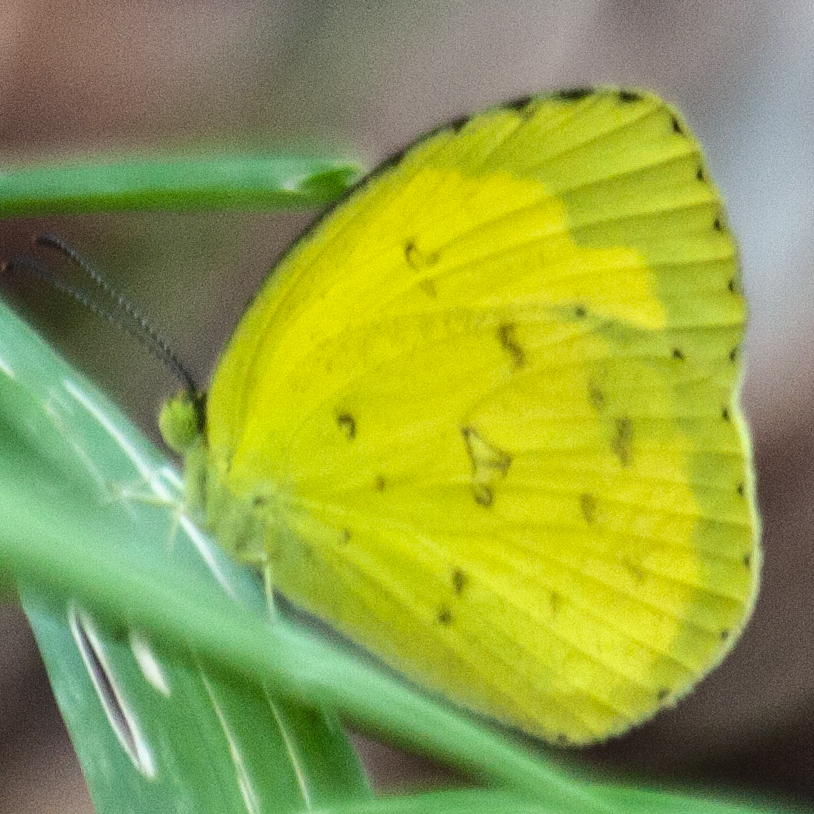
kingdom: Animalia
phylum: Arthropoda
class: Insecta
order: Lepidoptera
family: Pieridae
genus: Eurema
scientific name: Eurema hecabe
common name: Pale grass yellow
